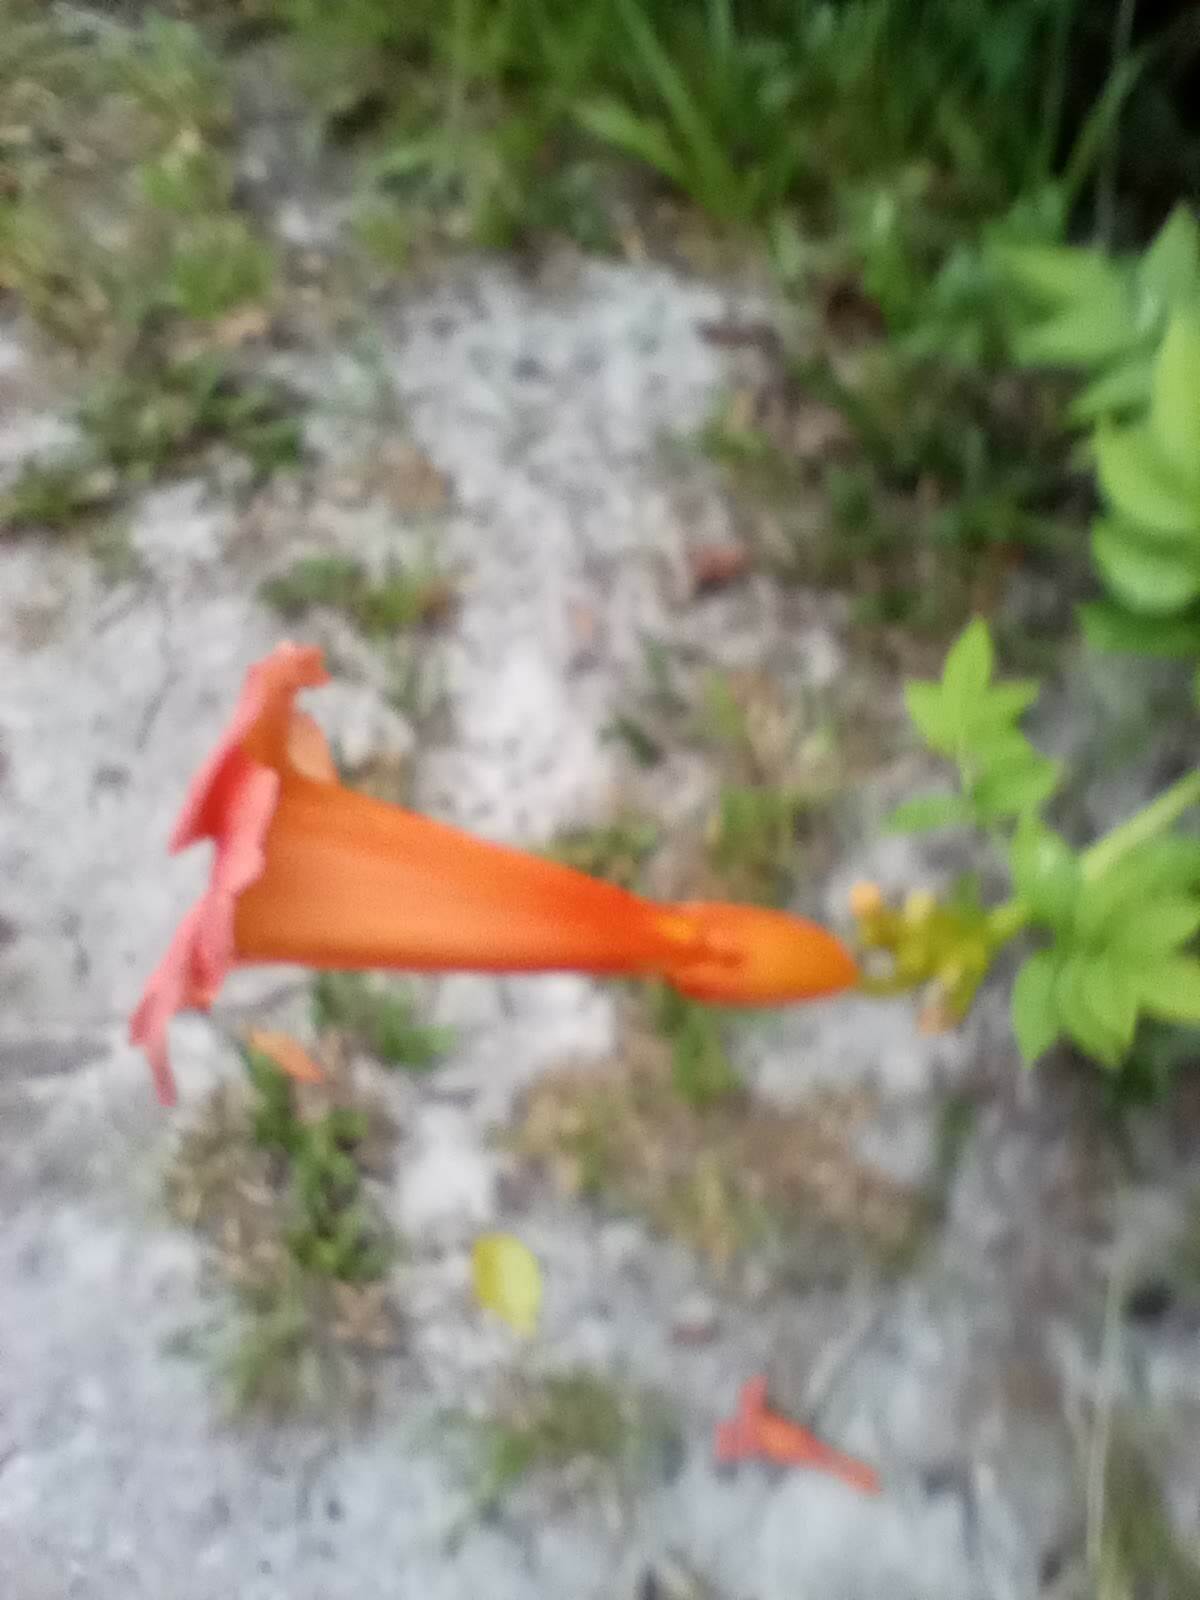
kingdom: Plantae
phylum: Tracheophyta
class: Magnoliopsida
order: Lamiales
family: Bignoniaceae
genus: Campsis
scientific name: Campsis radicans
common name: Trumpet-creeper
